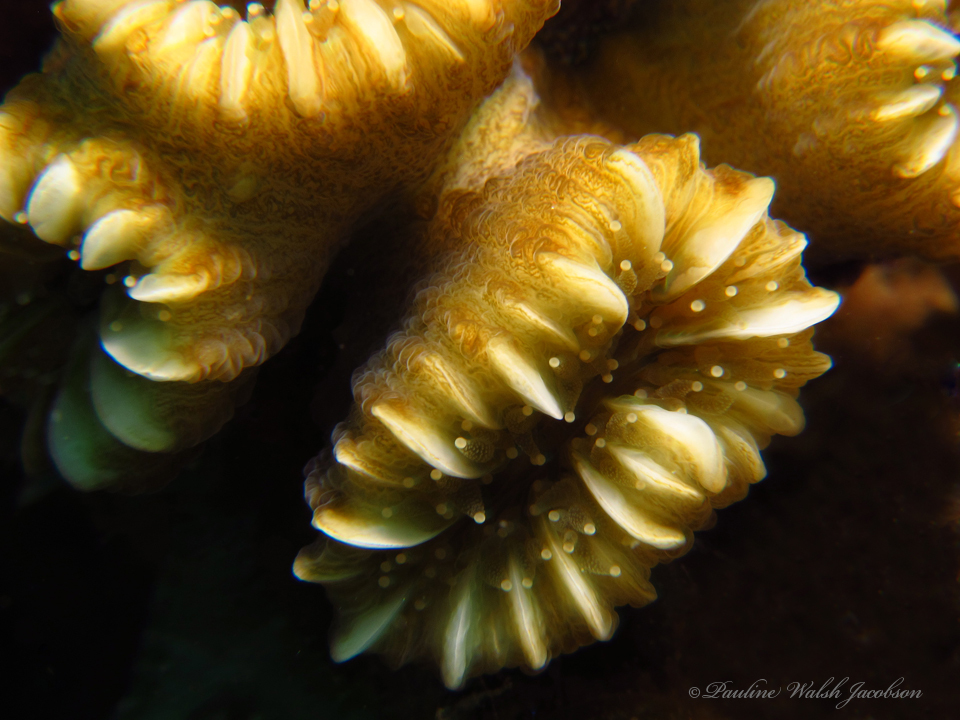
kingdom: Animalia
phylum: Cnidaria
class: Anthozoa
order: Scleractinia
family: Meandrinidae
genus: Eusmilia
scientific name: Eusmilia fastigiata
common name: Smooth flower coral
